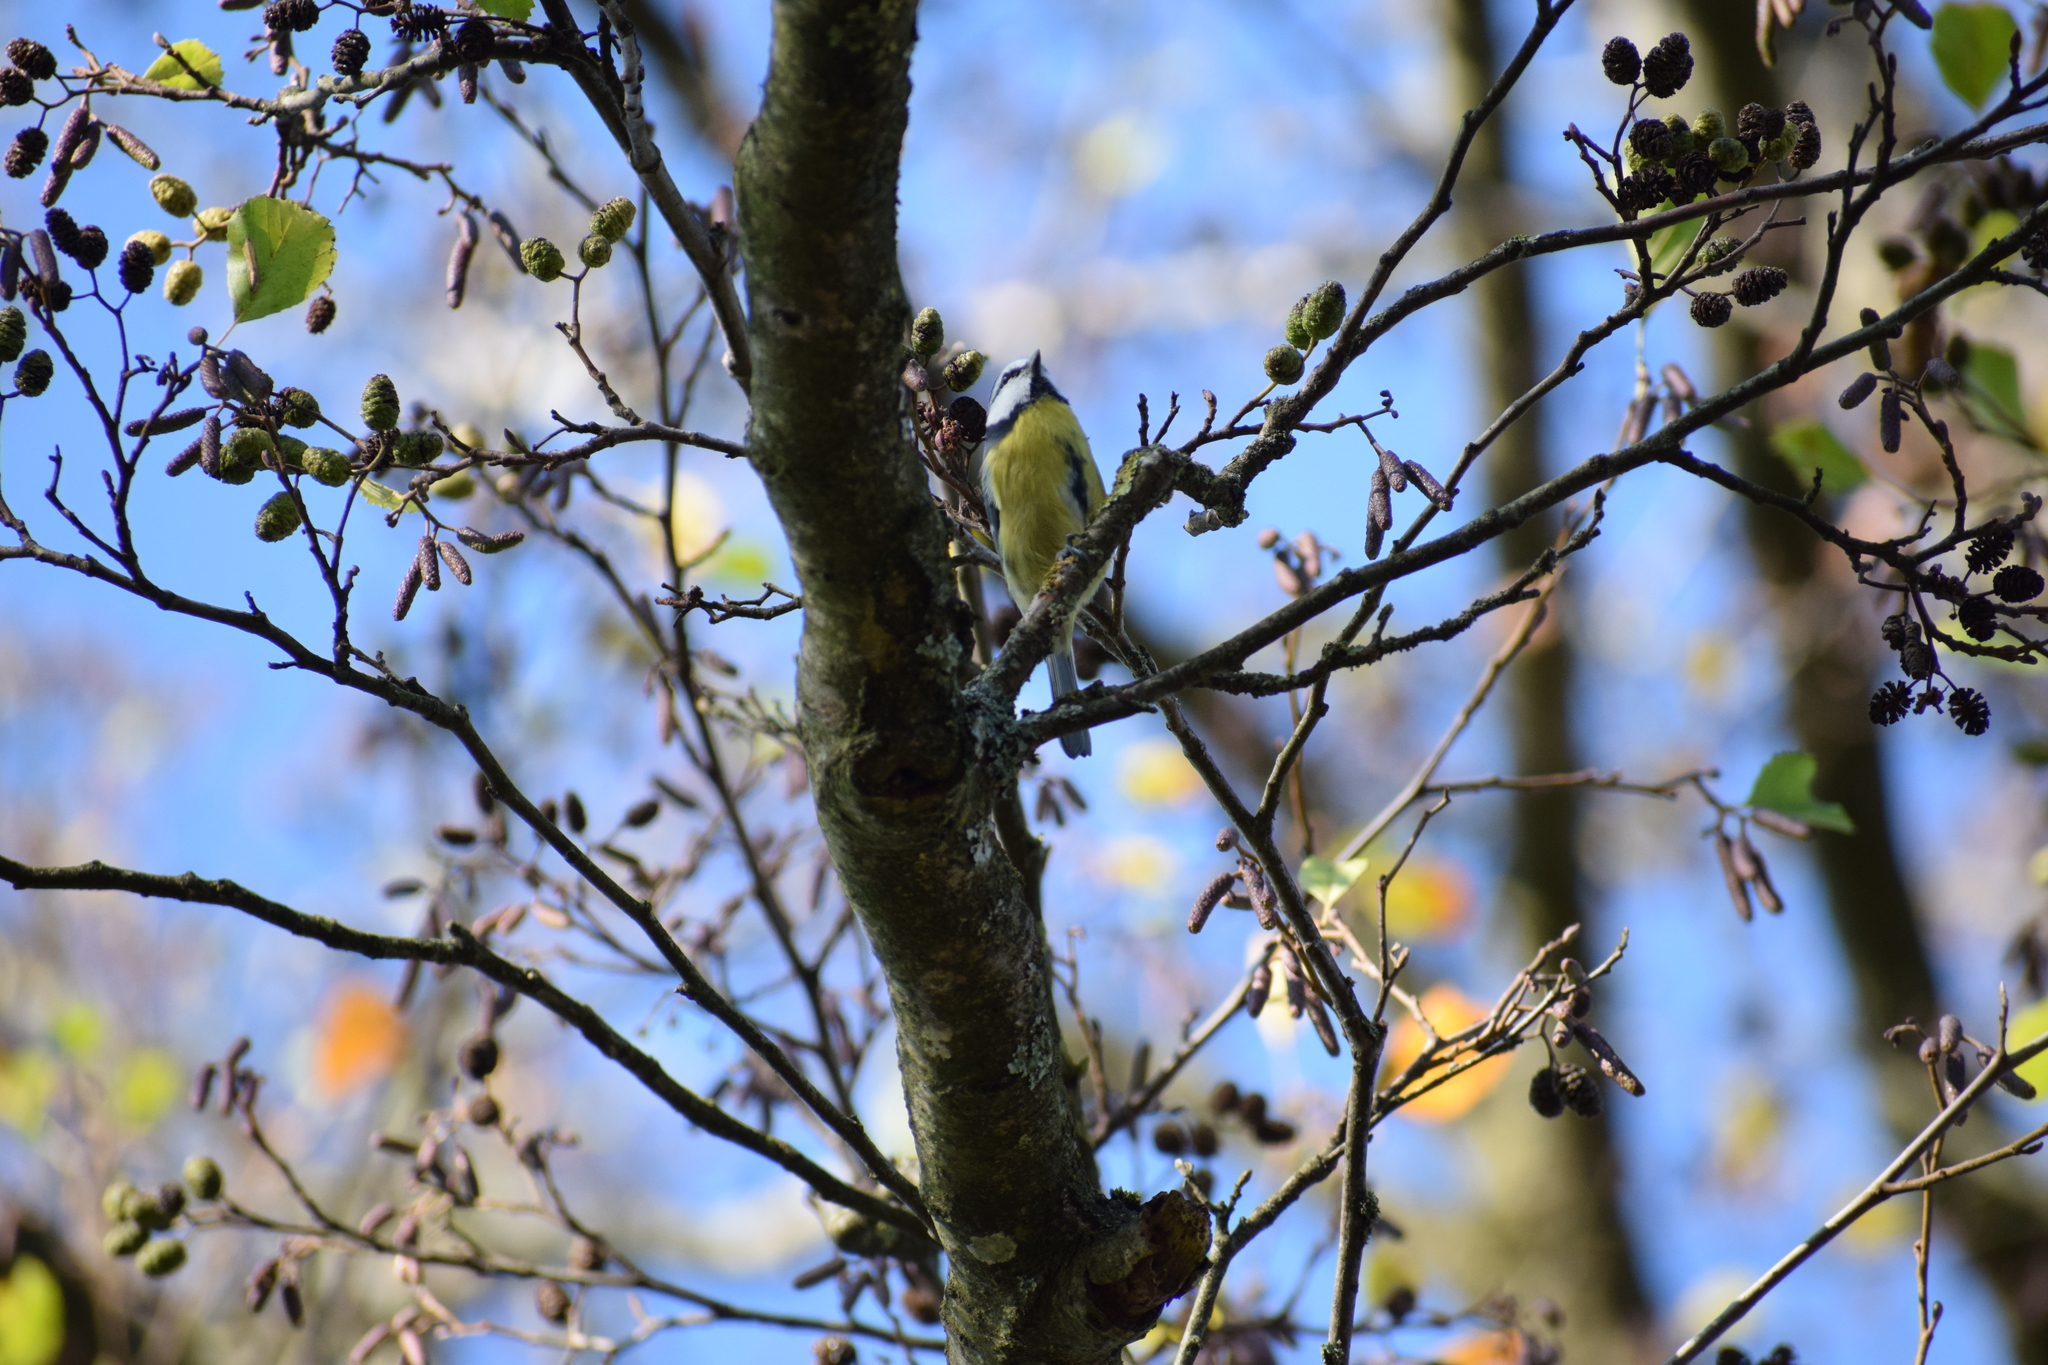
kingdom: Animalia
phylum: Chordata
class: Aves
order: Passeriformes
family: Paridae
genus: Cyanistes
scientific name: Cyanistes caeruleus
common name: Eurasian blue tit
